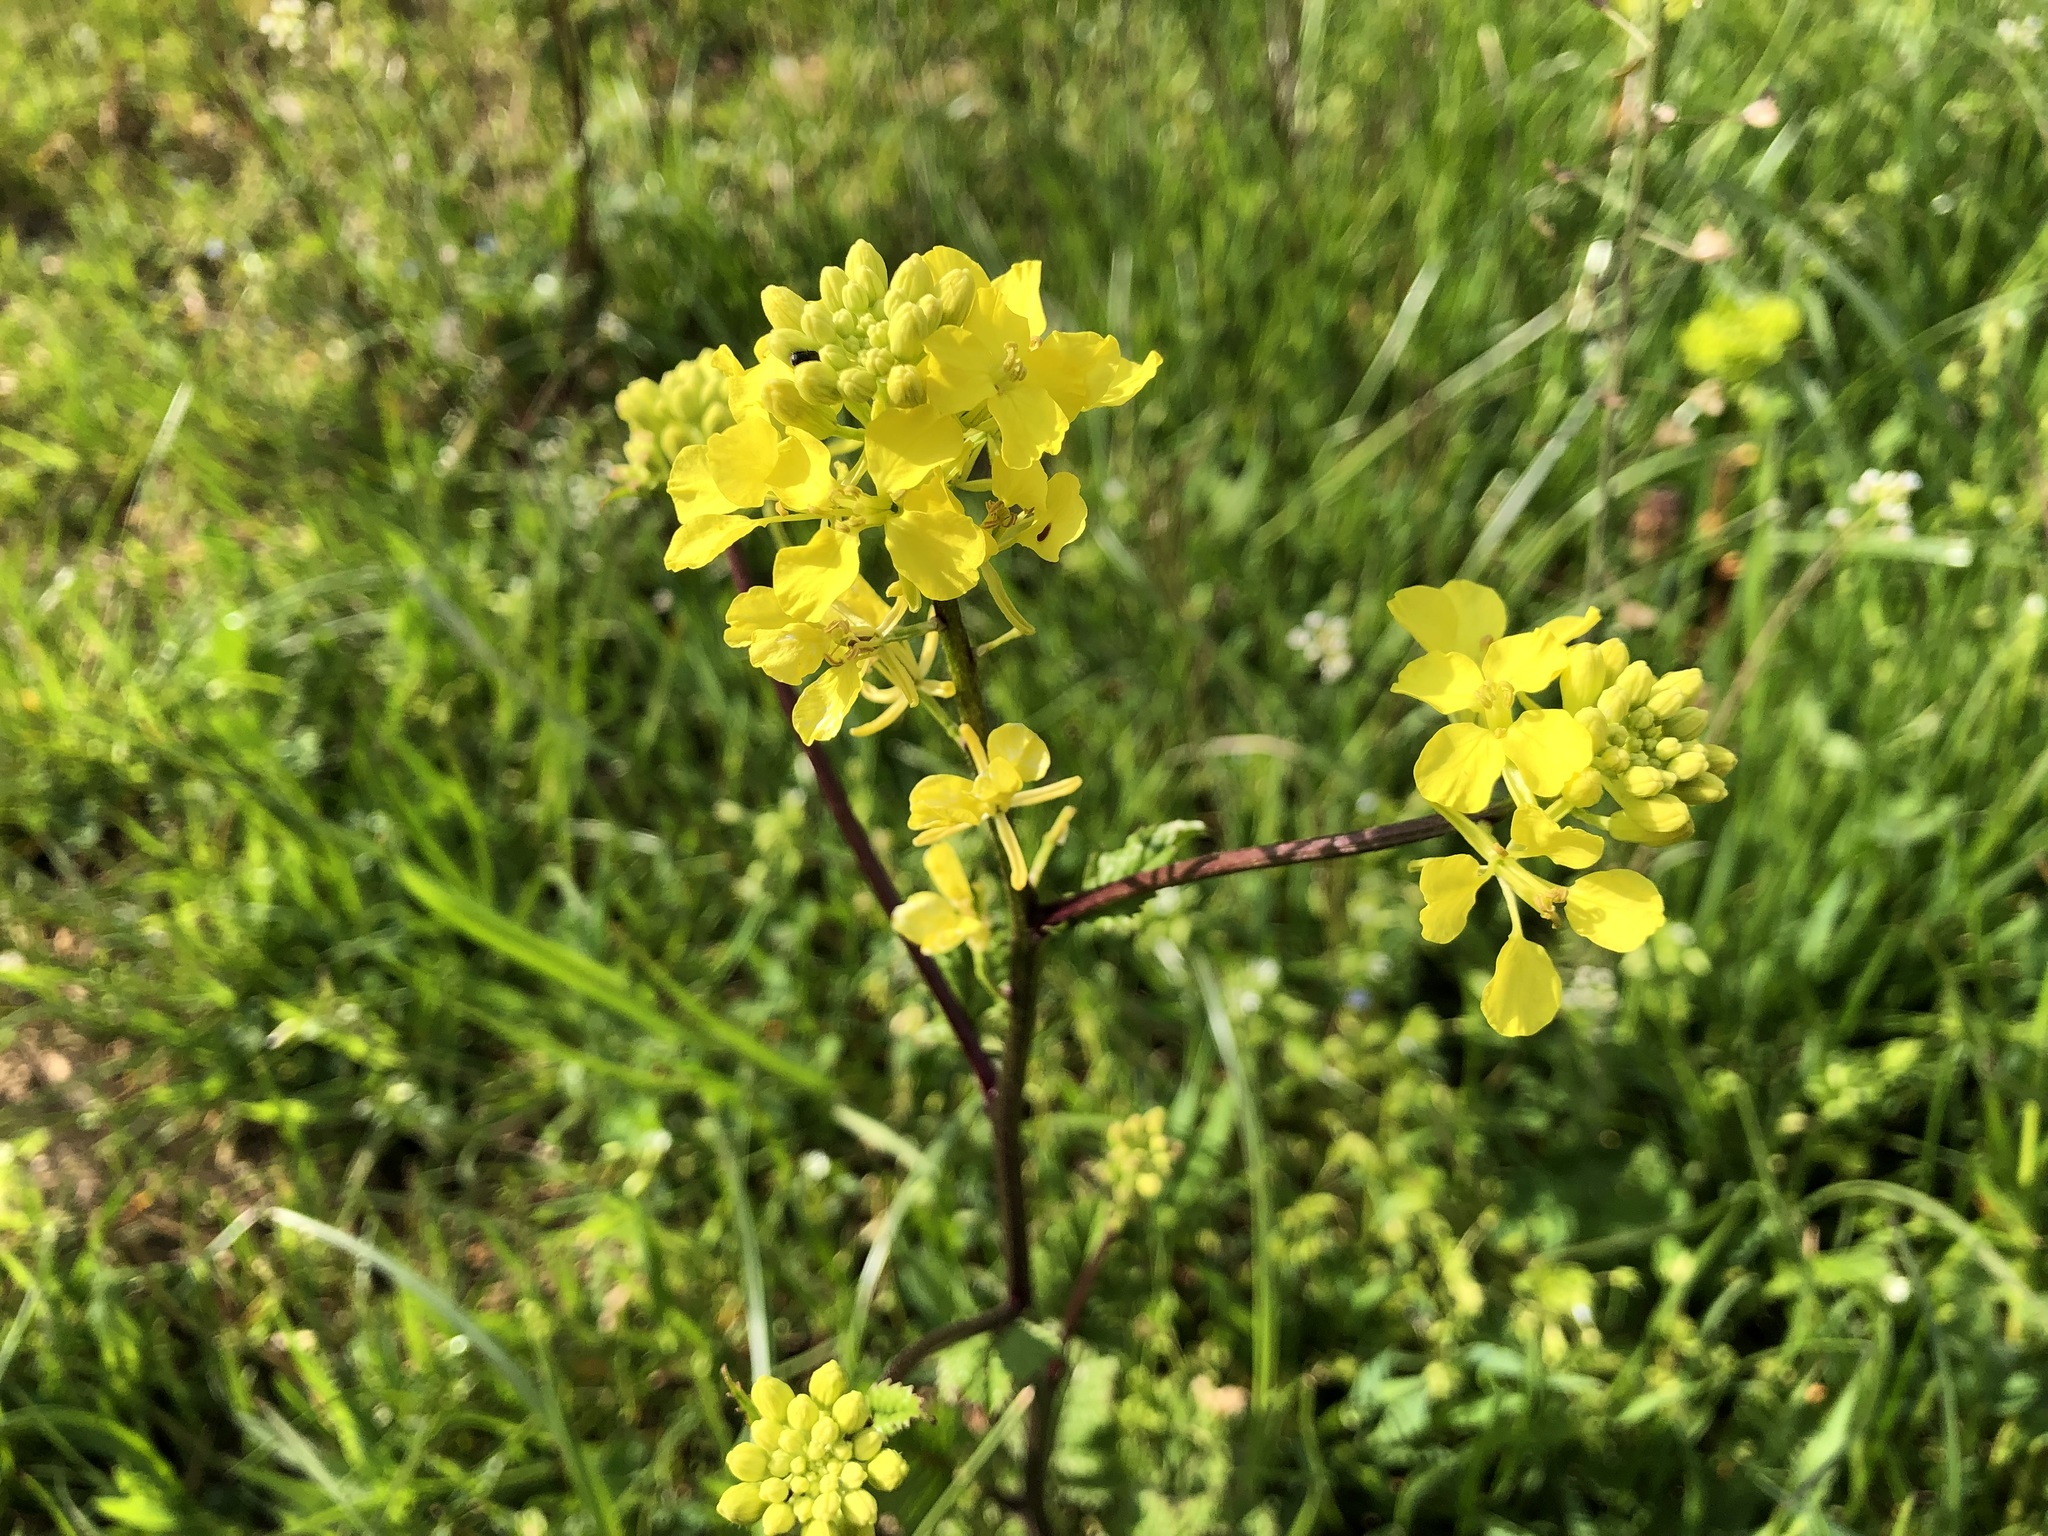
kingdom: Plantae
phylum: Tracheophyta
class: Magnoliopsida
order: Brassicales
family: Brassicaceae
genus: Sinapis
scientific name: Sinapis arvensis
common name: Charlock
